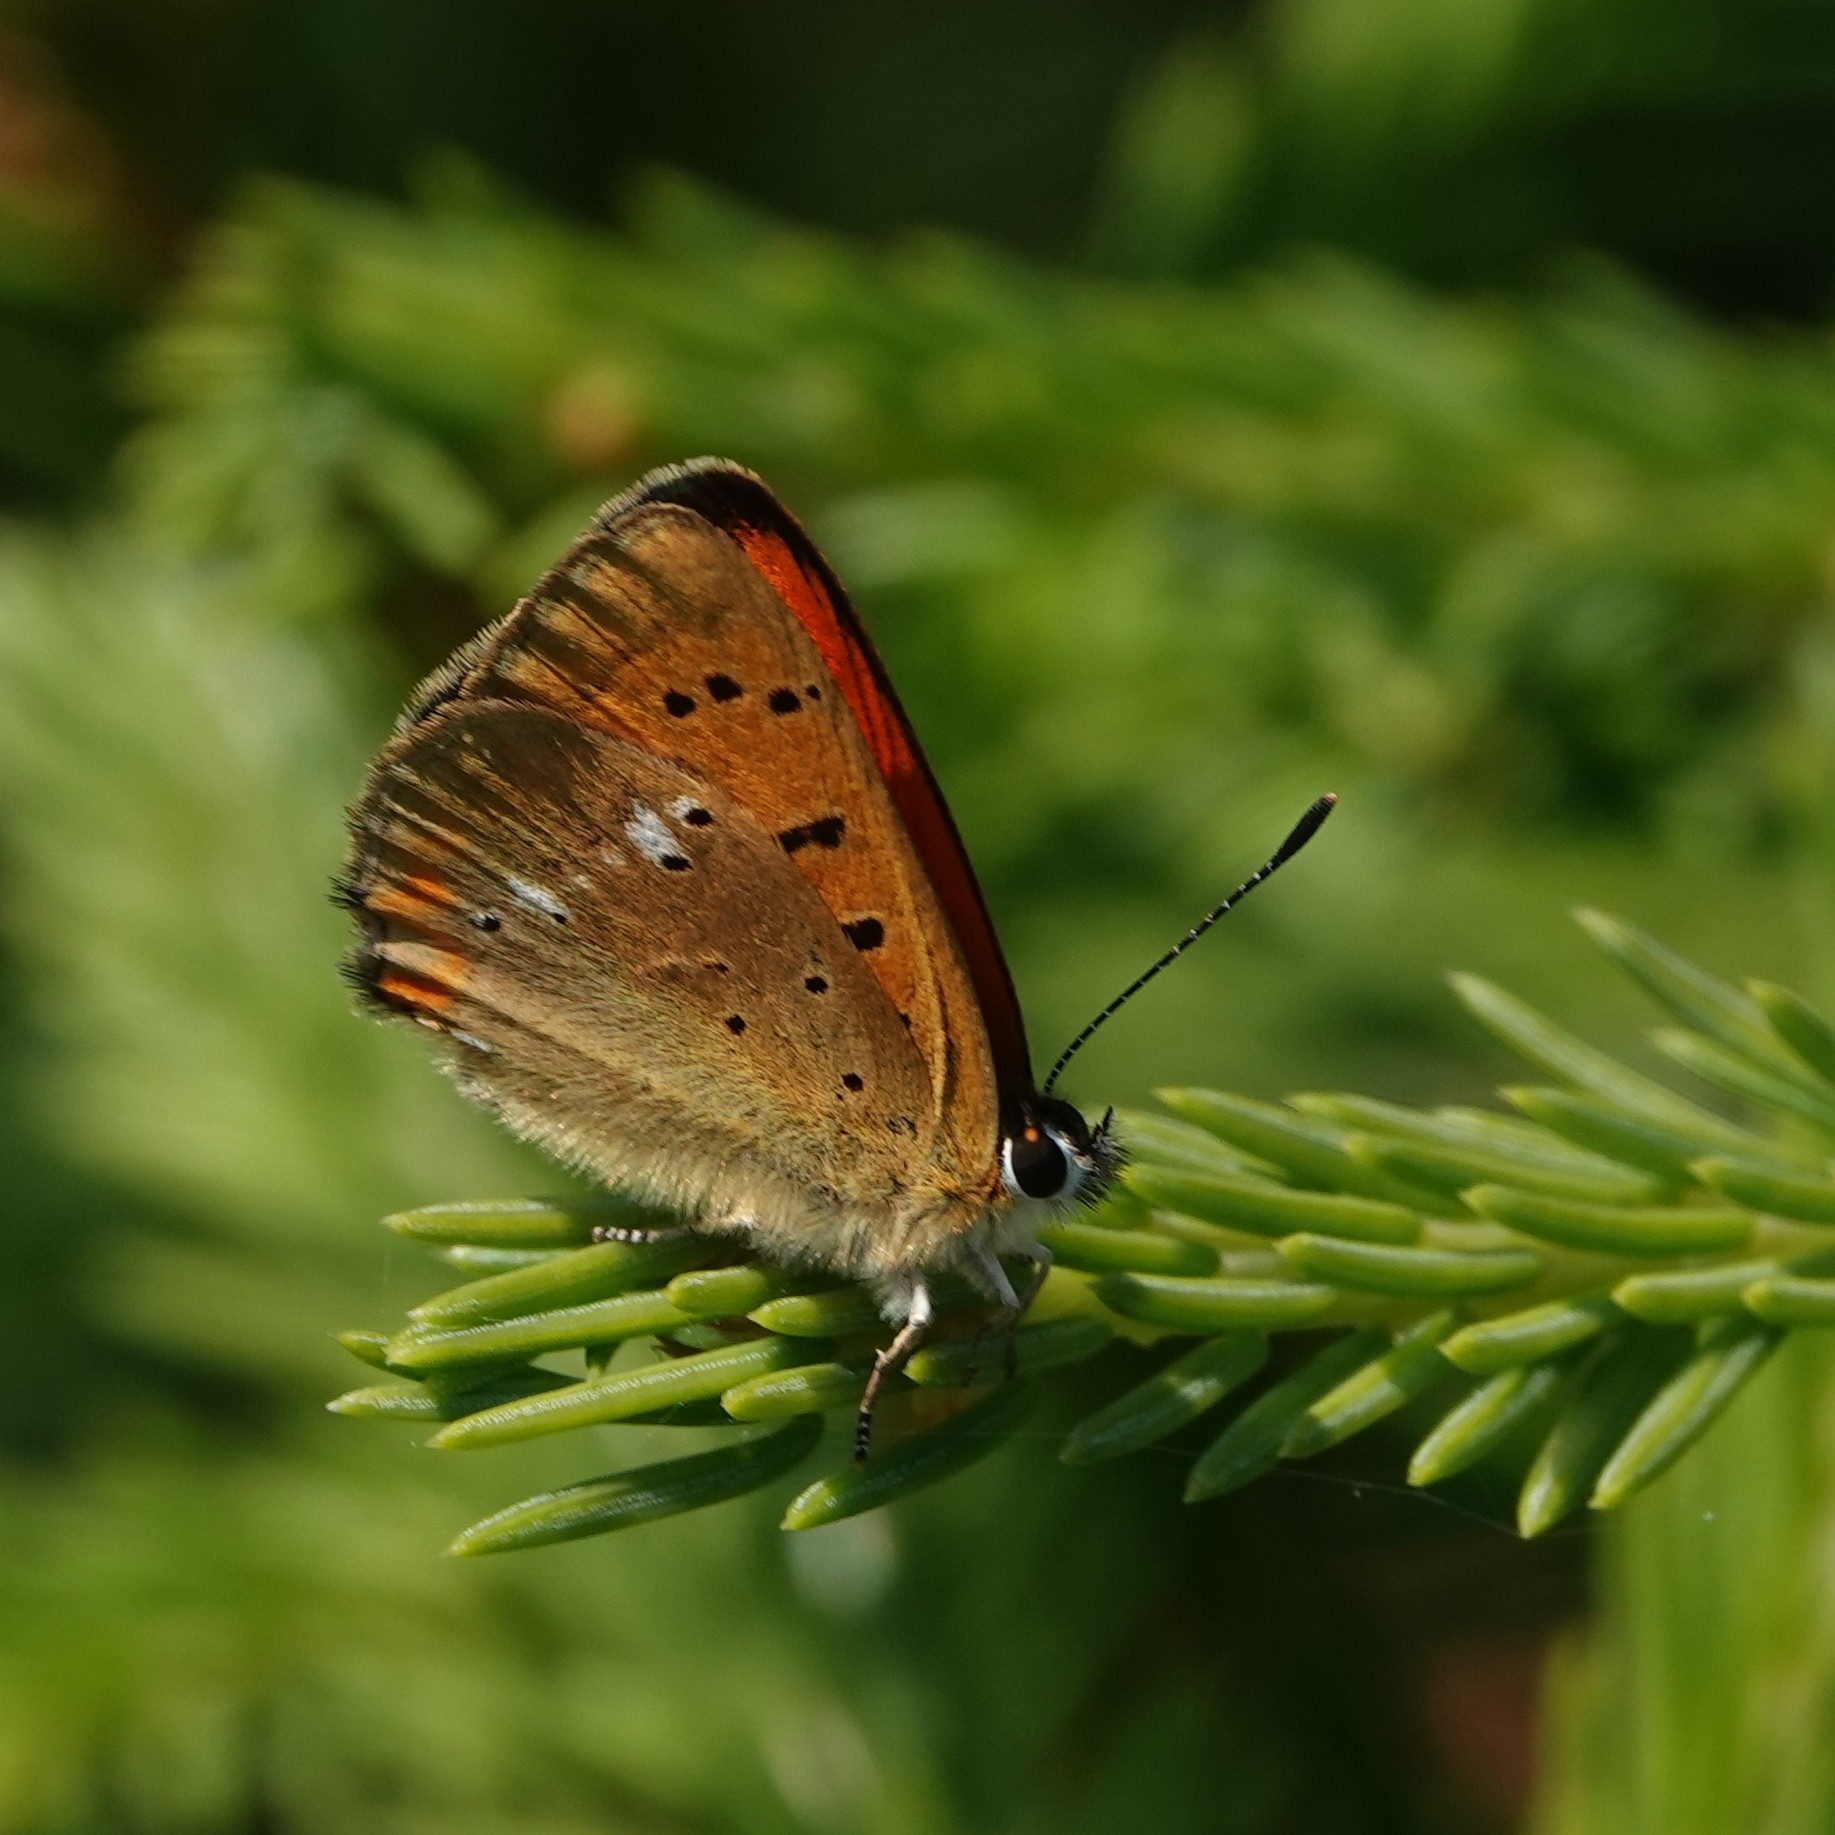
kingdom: Animalia
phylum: Arthropoda
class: Insecta
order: Lepidoptera
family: Lycaenidae
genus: Lycaena
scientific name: Lycaena virgaureae
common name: Scarce copper
